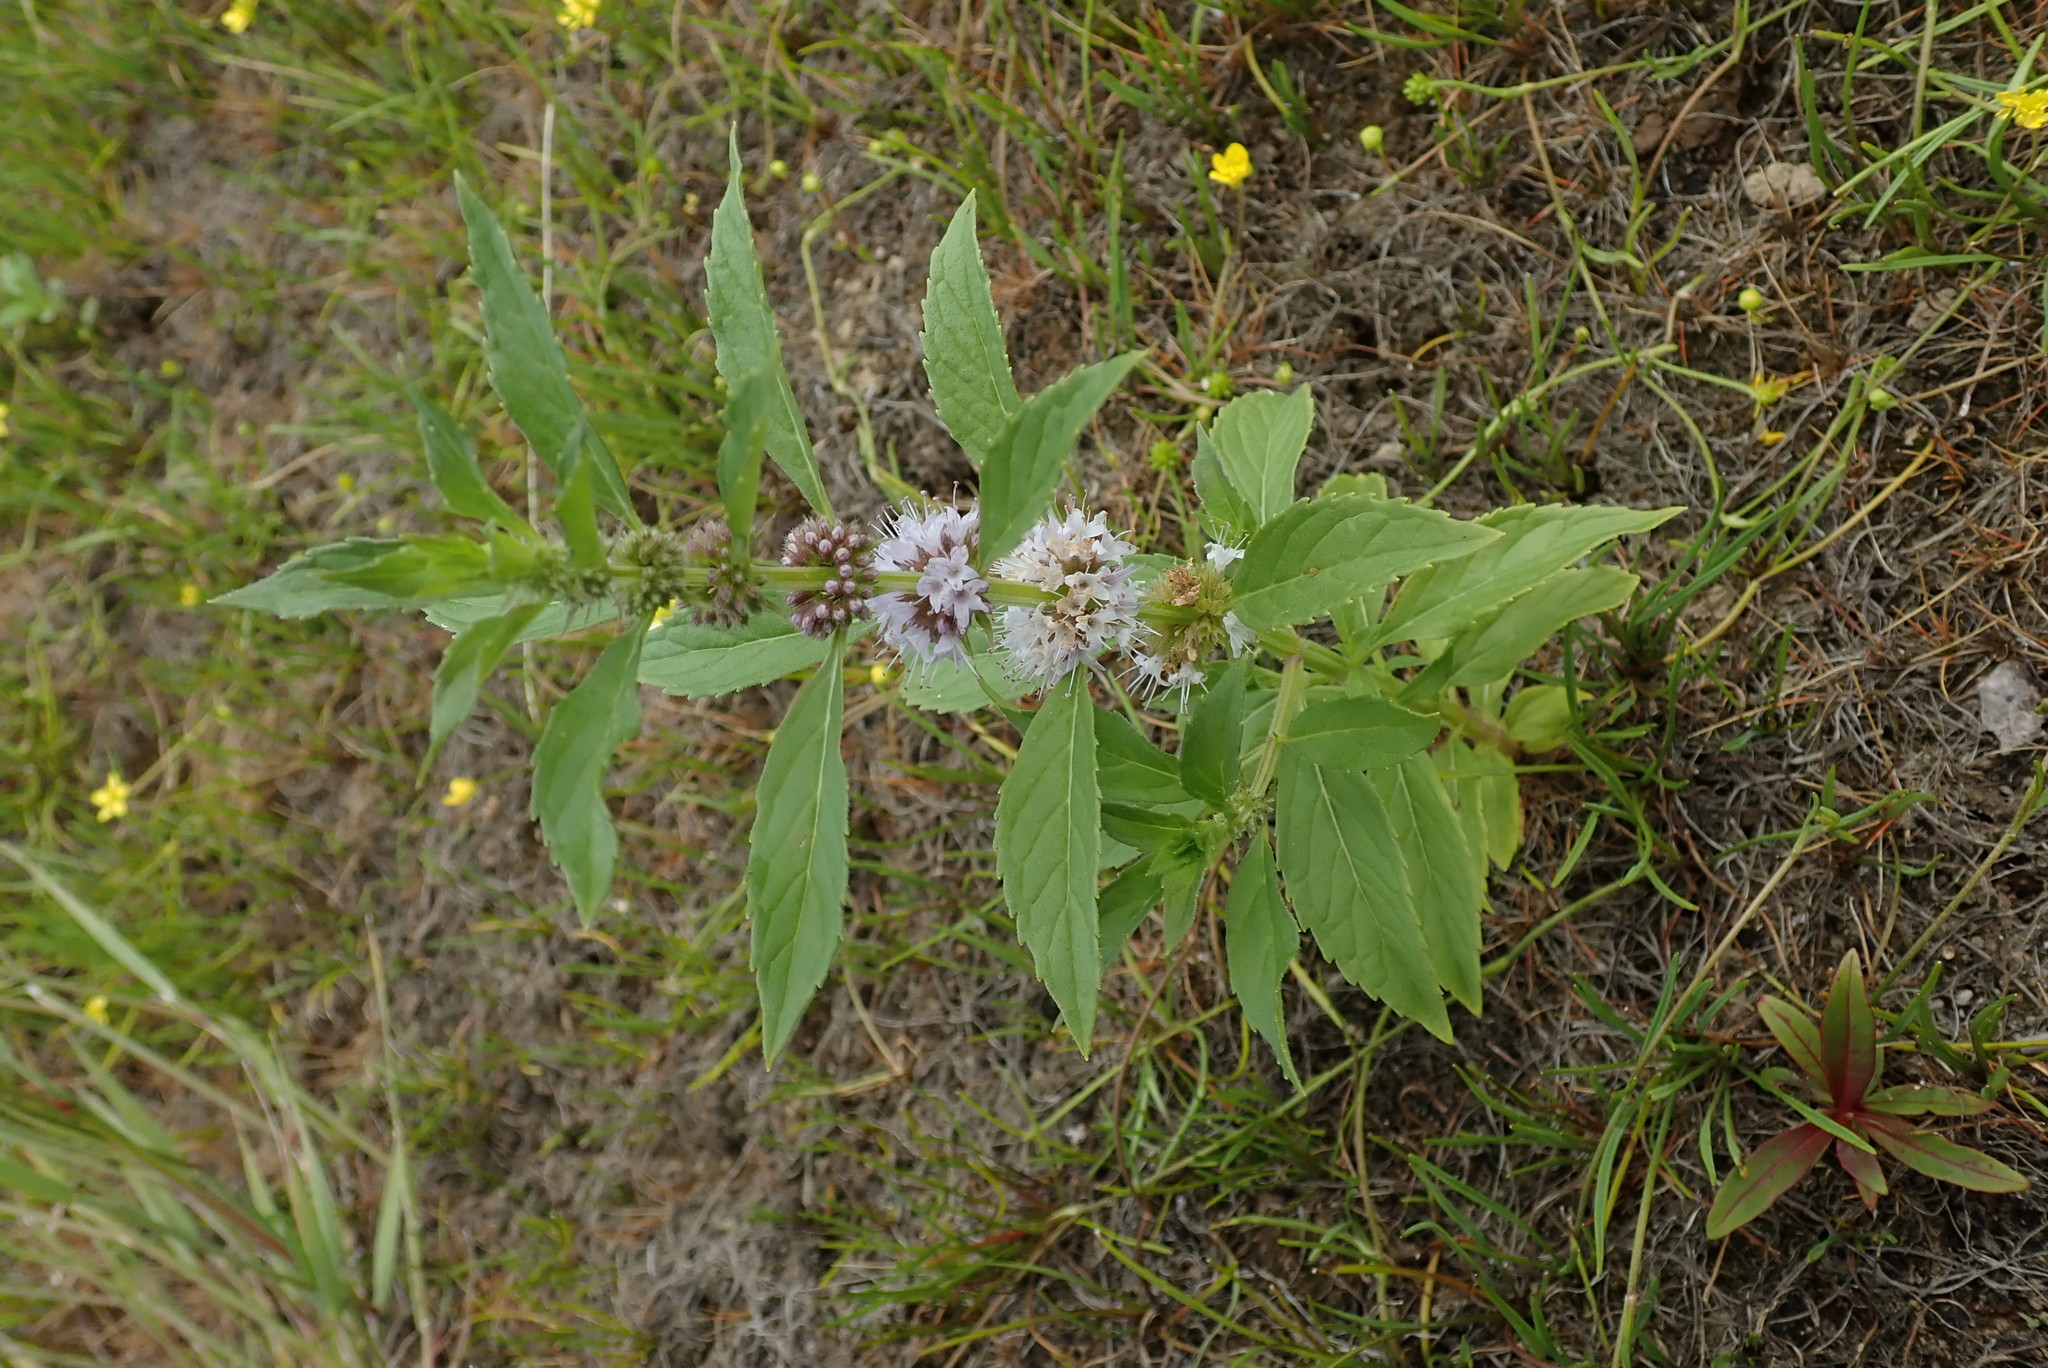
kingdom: Plantae
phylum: Tracheophyta
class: Magnoliopsida
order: Lamiales
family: Lamiaceae
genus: Mentha
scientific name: Mentha canadensis
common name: American corn mint
